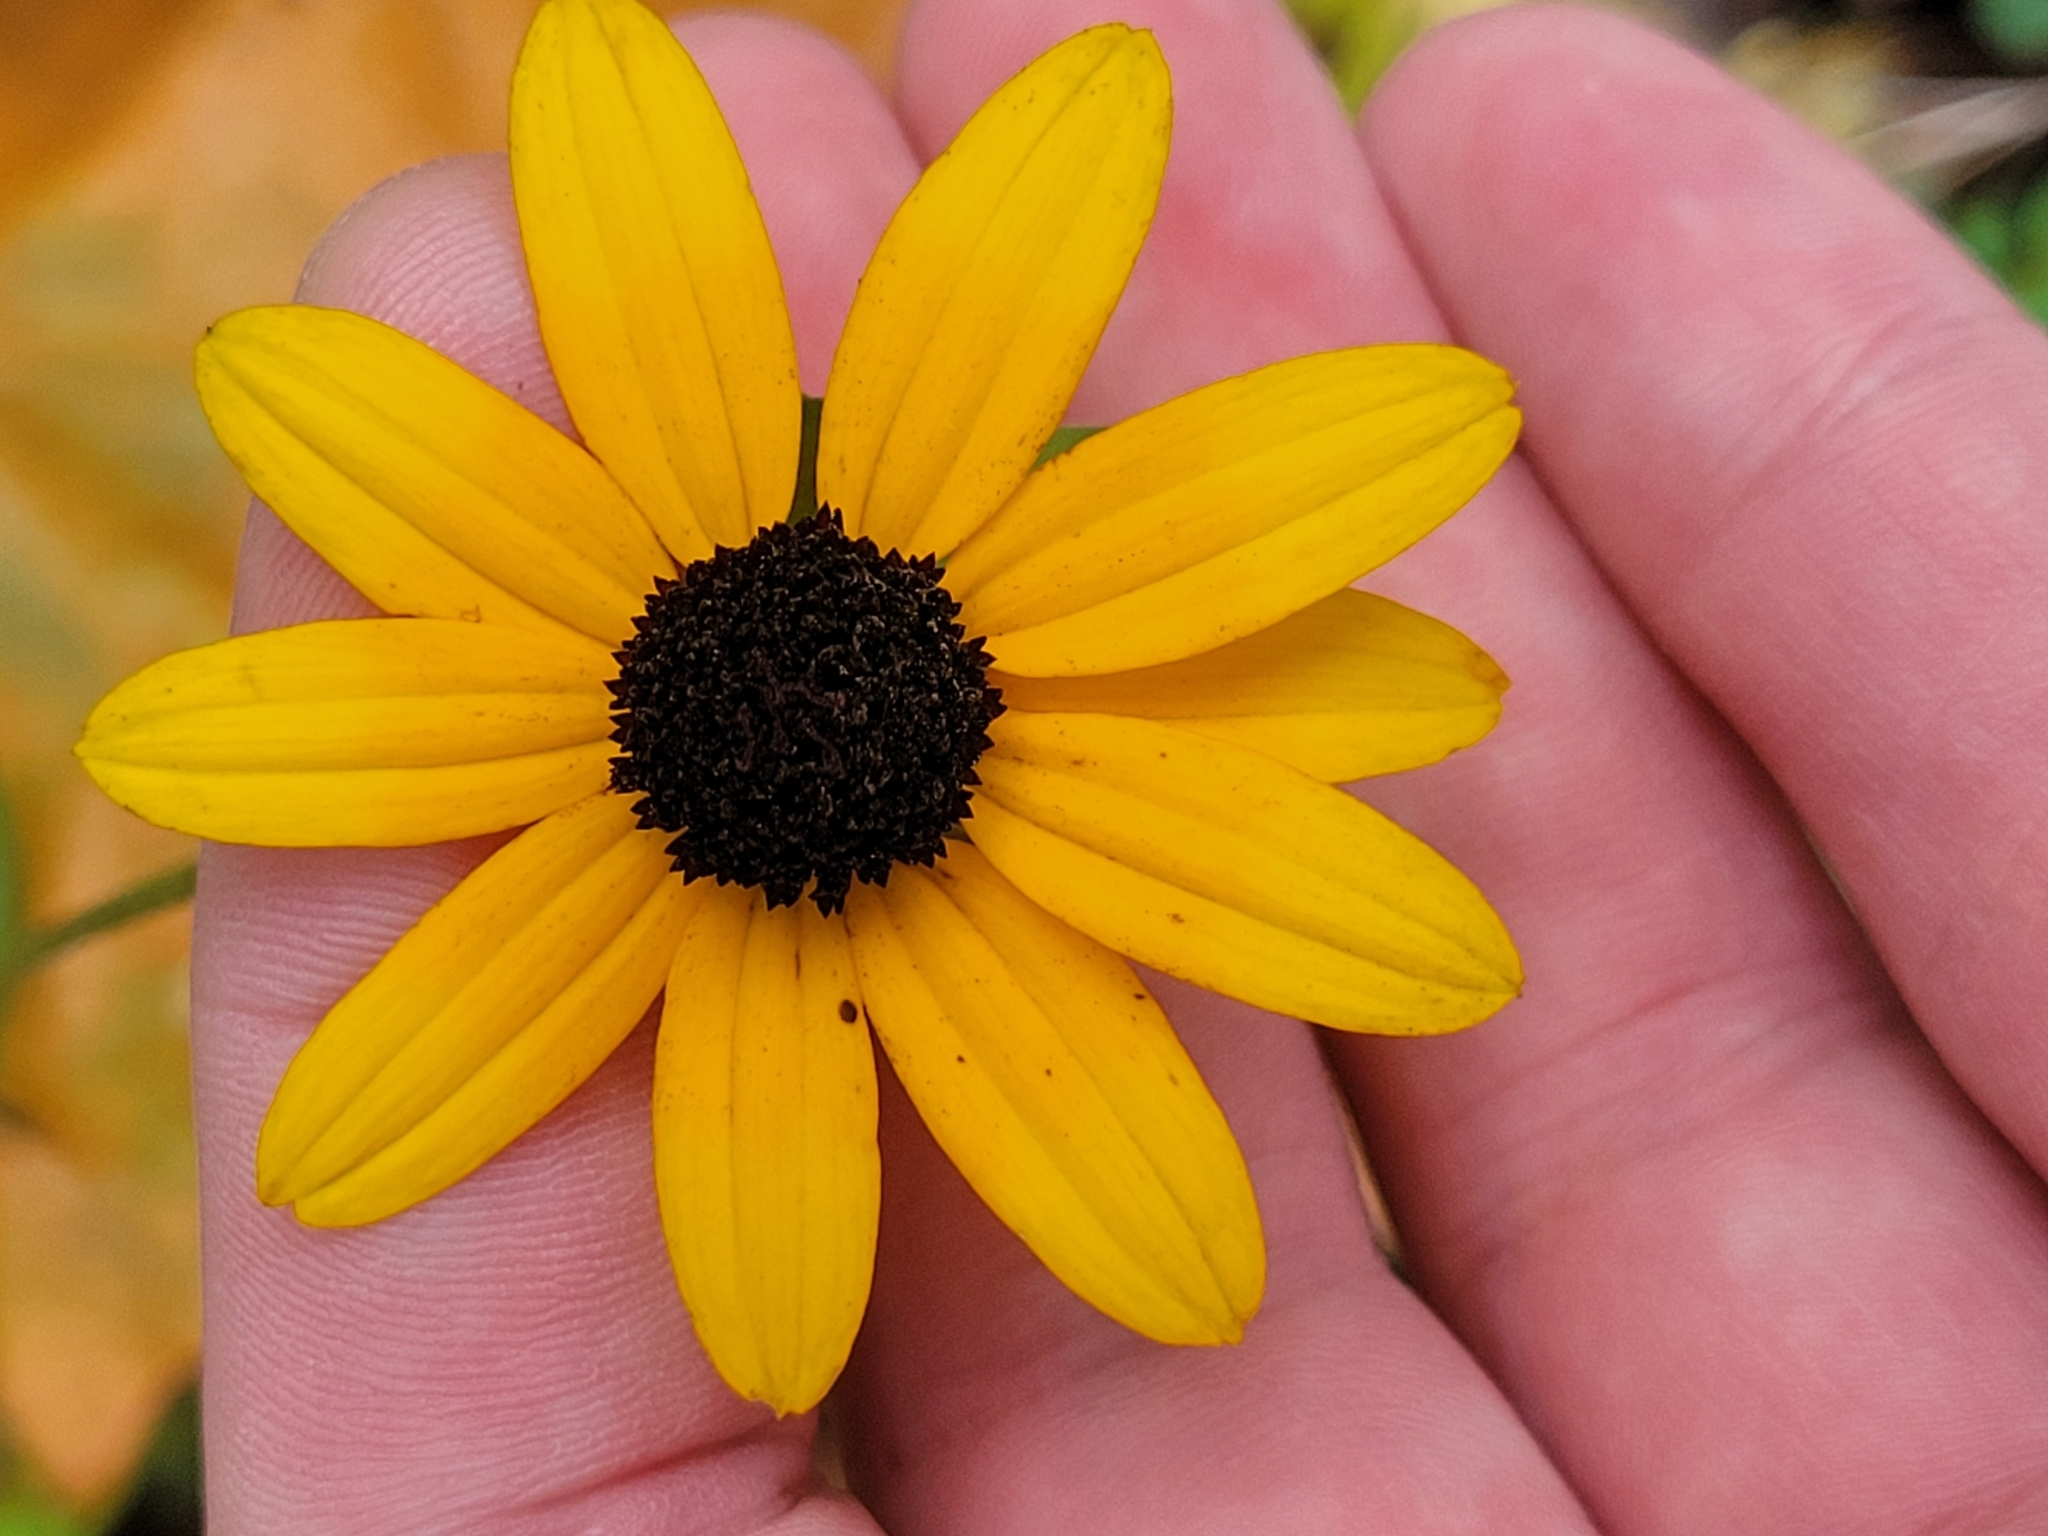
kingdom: Plantae
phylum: Tracheophyta
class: Magnoliopsida
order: Asterales
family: Asteraceae
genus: Rudbeckia
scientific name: Rudbeckia fulgida
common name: Perennial coneflower
